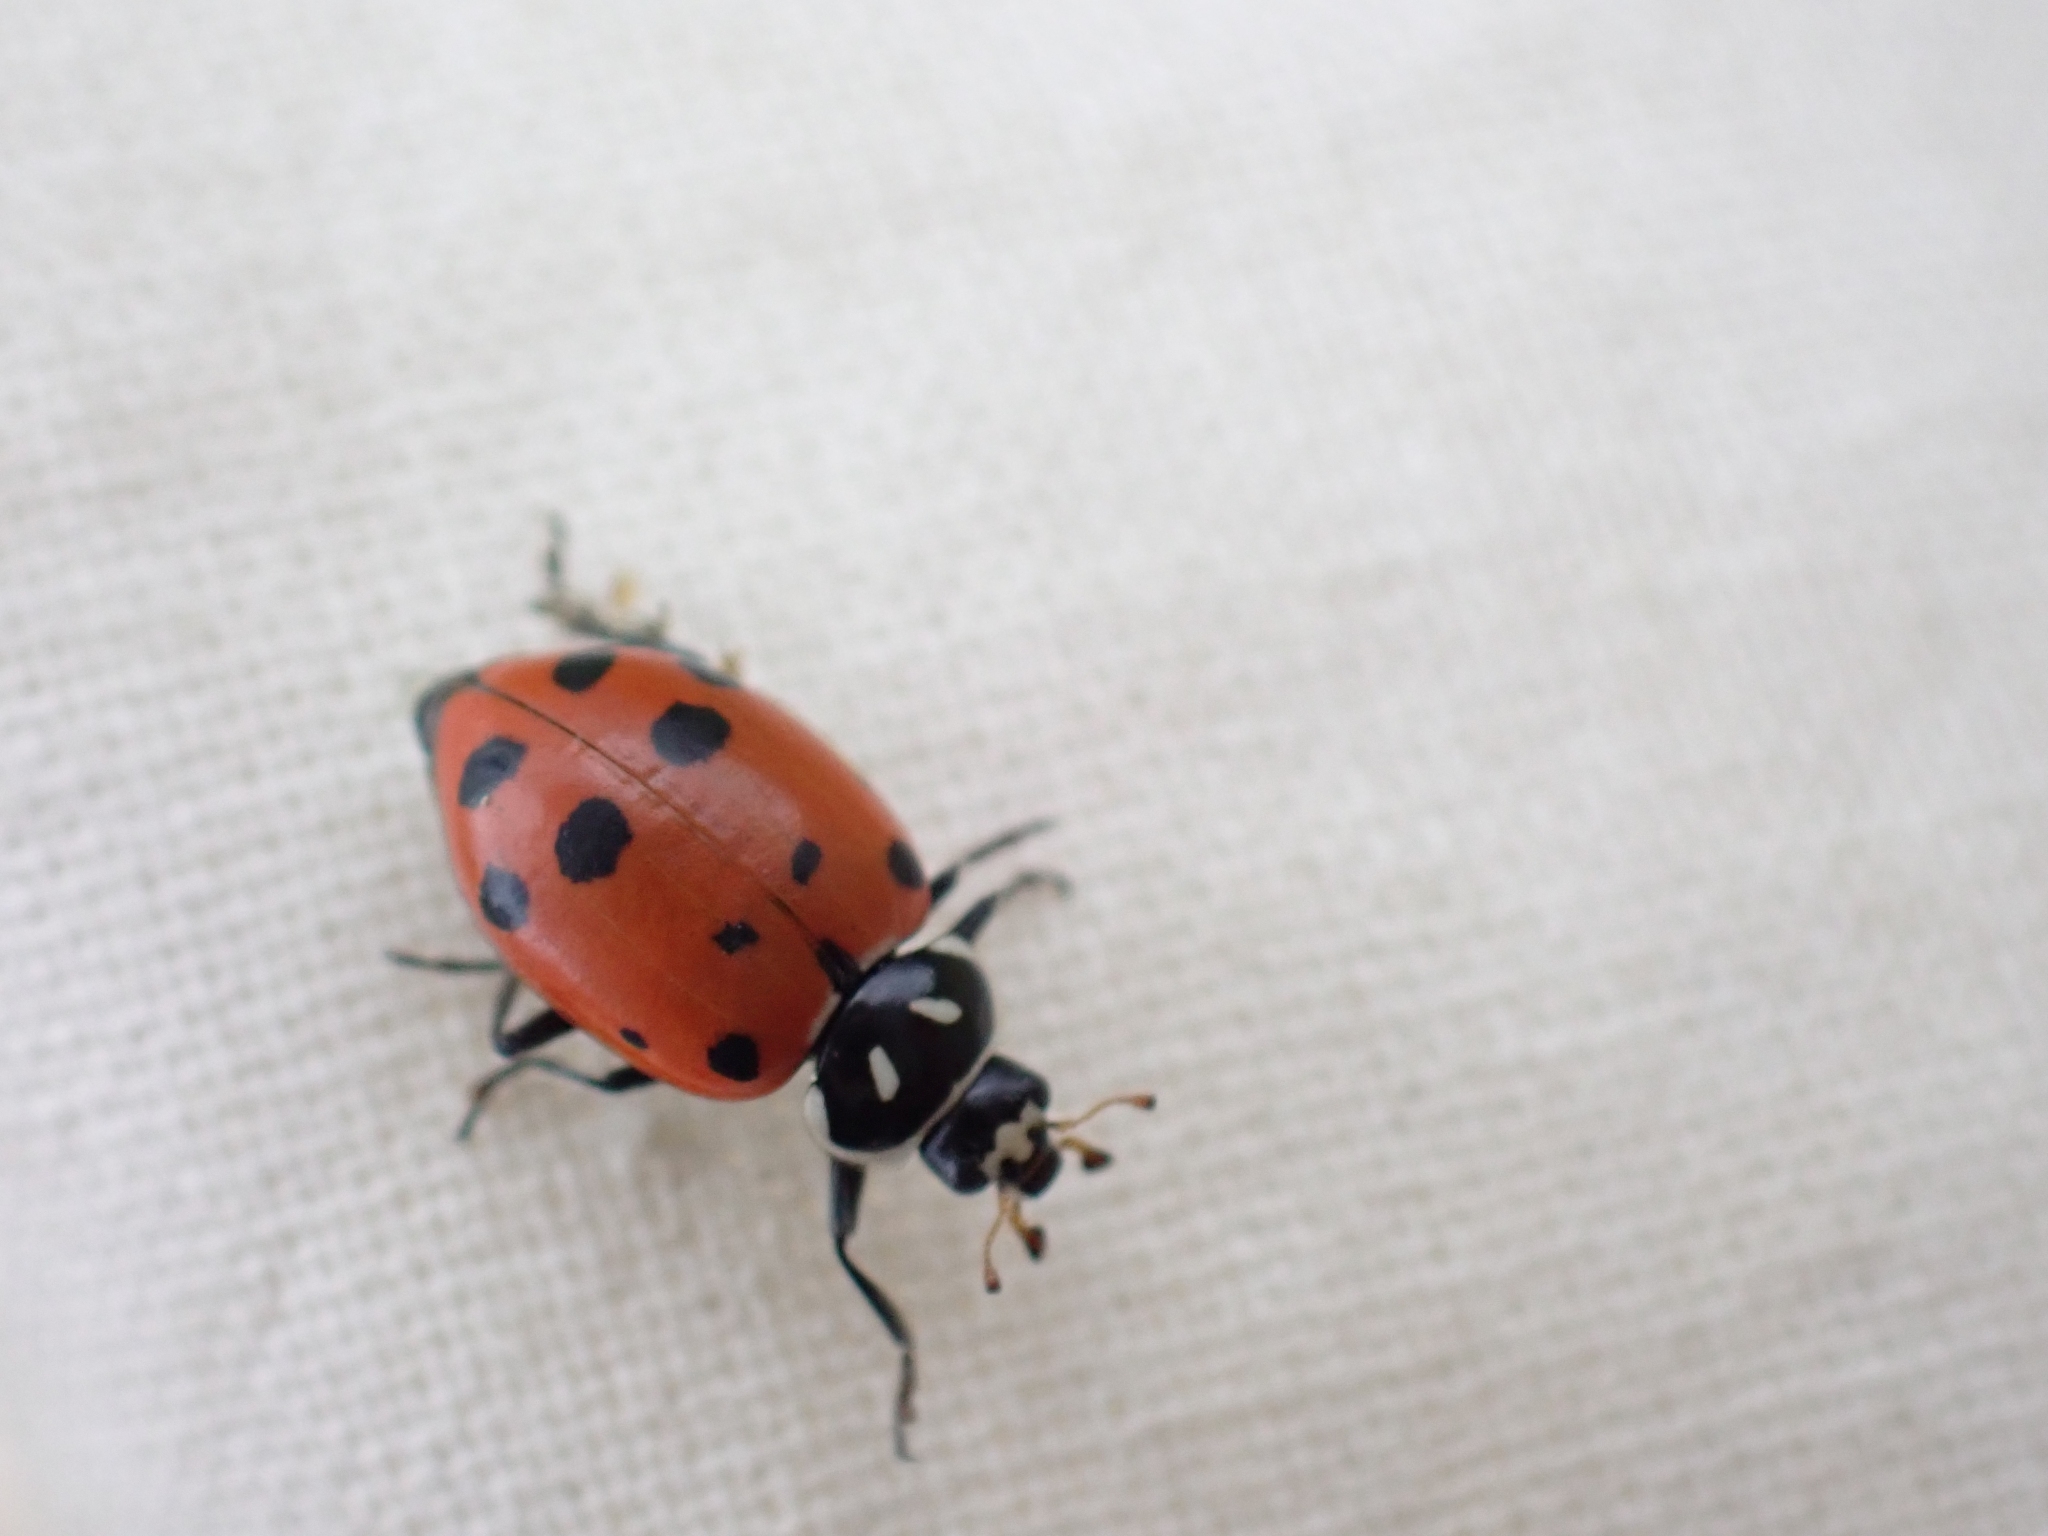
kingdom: Animalia
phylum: Arthropoda
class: Insecta
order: Coleoptera
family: Coccinellidae
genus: Hippodamia
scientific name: Hippodamia convergens
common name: Convergent lady beetle
